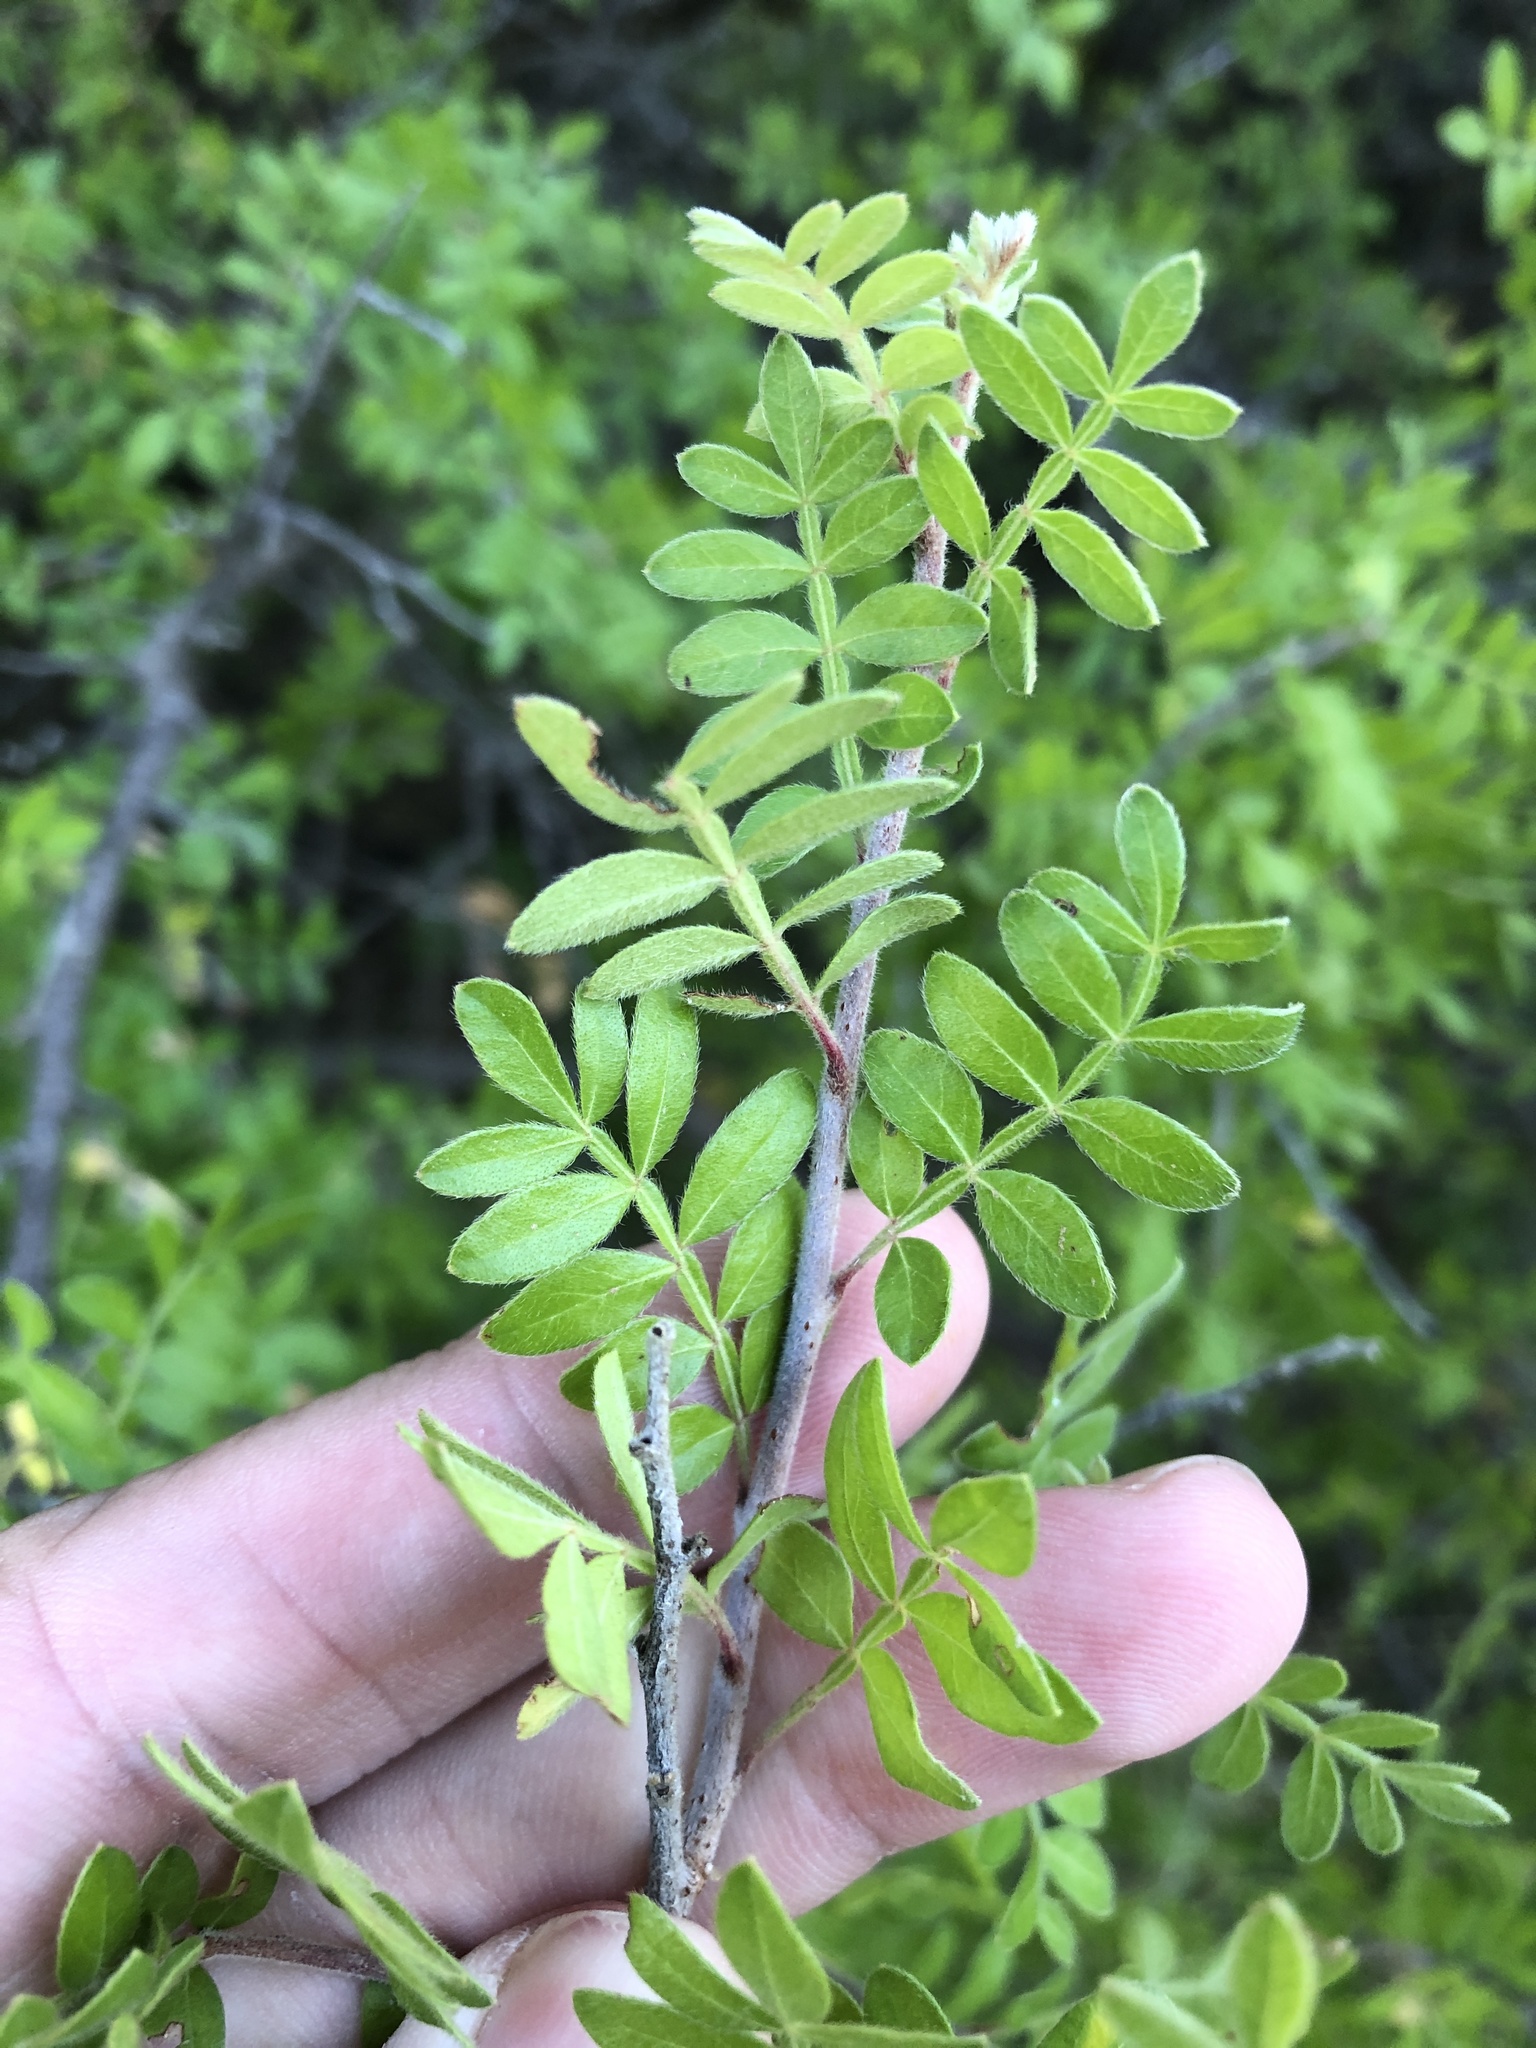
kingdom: Plantae
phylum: Tracheophyta
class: Magnoliopsida
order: Sapindales
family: Anacardiaceae
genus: Rhus
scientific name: Rhus microphylla
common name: Desert sumac
